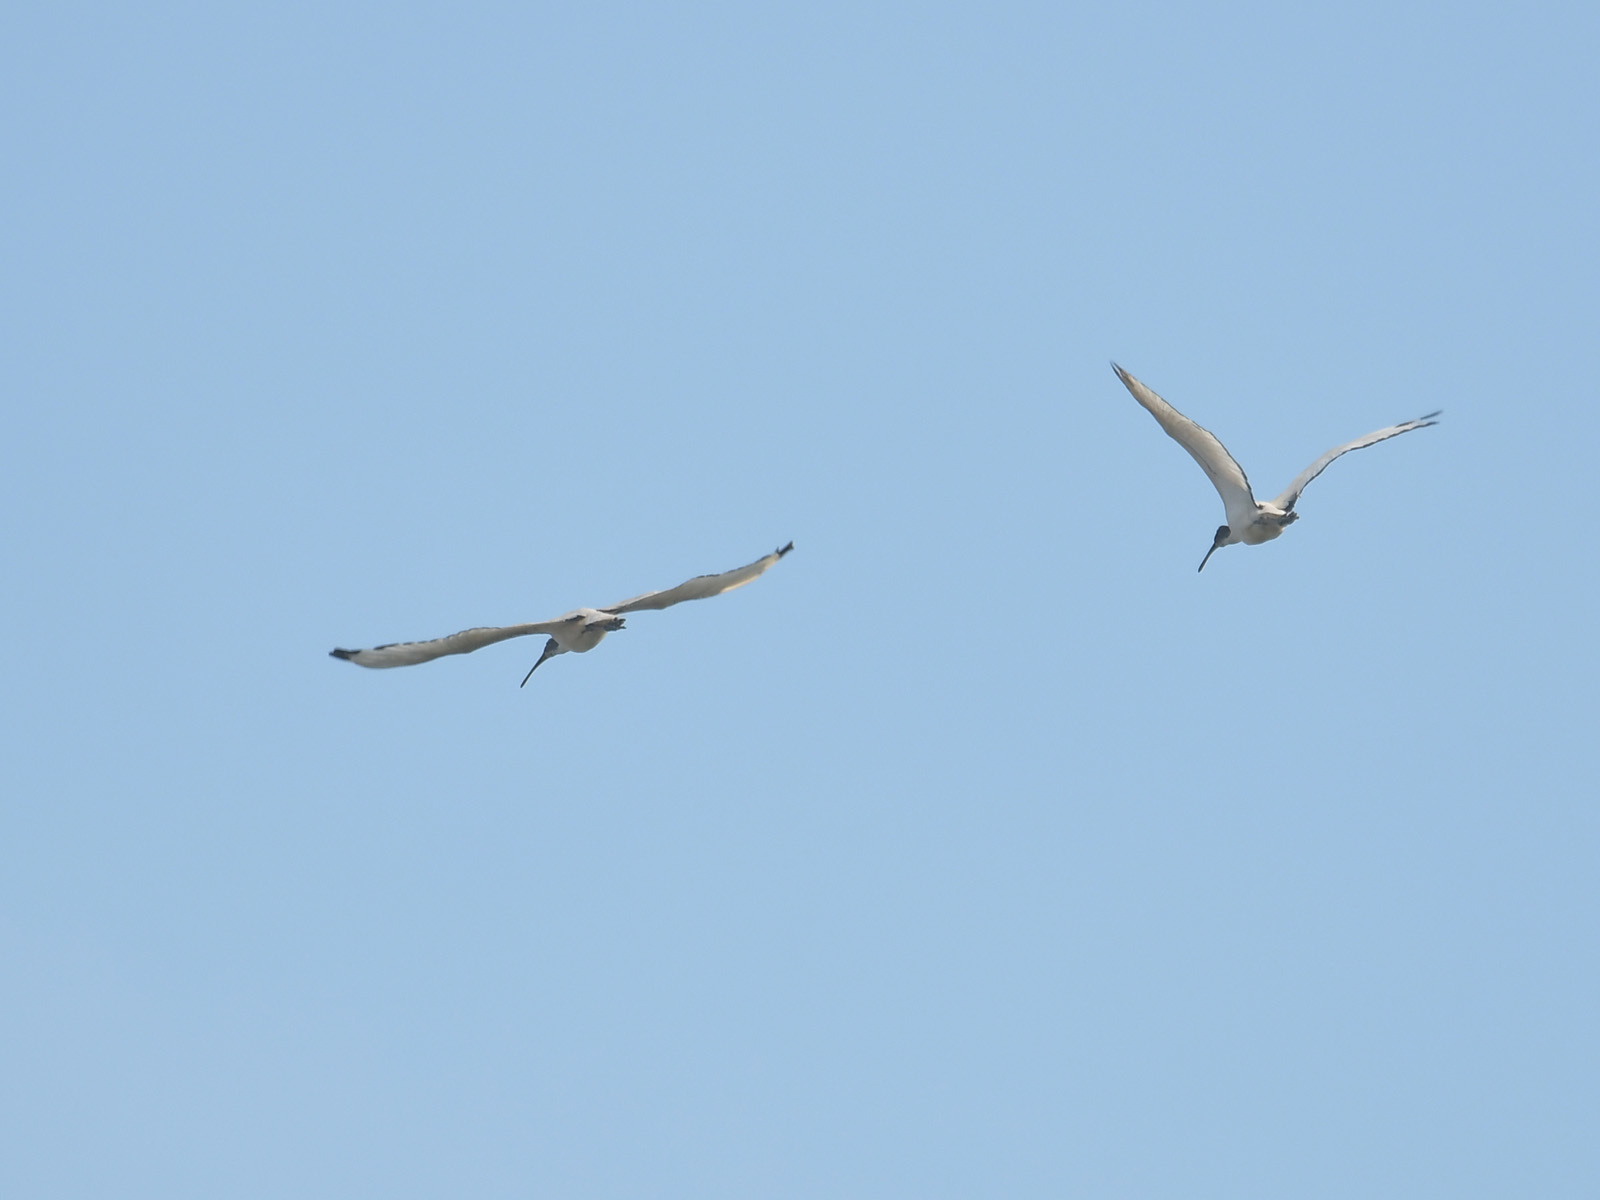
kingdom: Animalia
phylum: Chordata
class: Aves
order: Pelecaniformes
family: Threskiornithidae
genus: Threskiornis
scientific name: Threskiornis aethiopicus
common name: Sacred ibis
